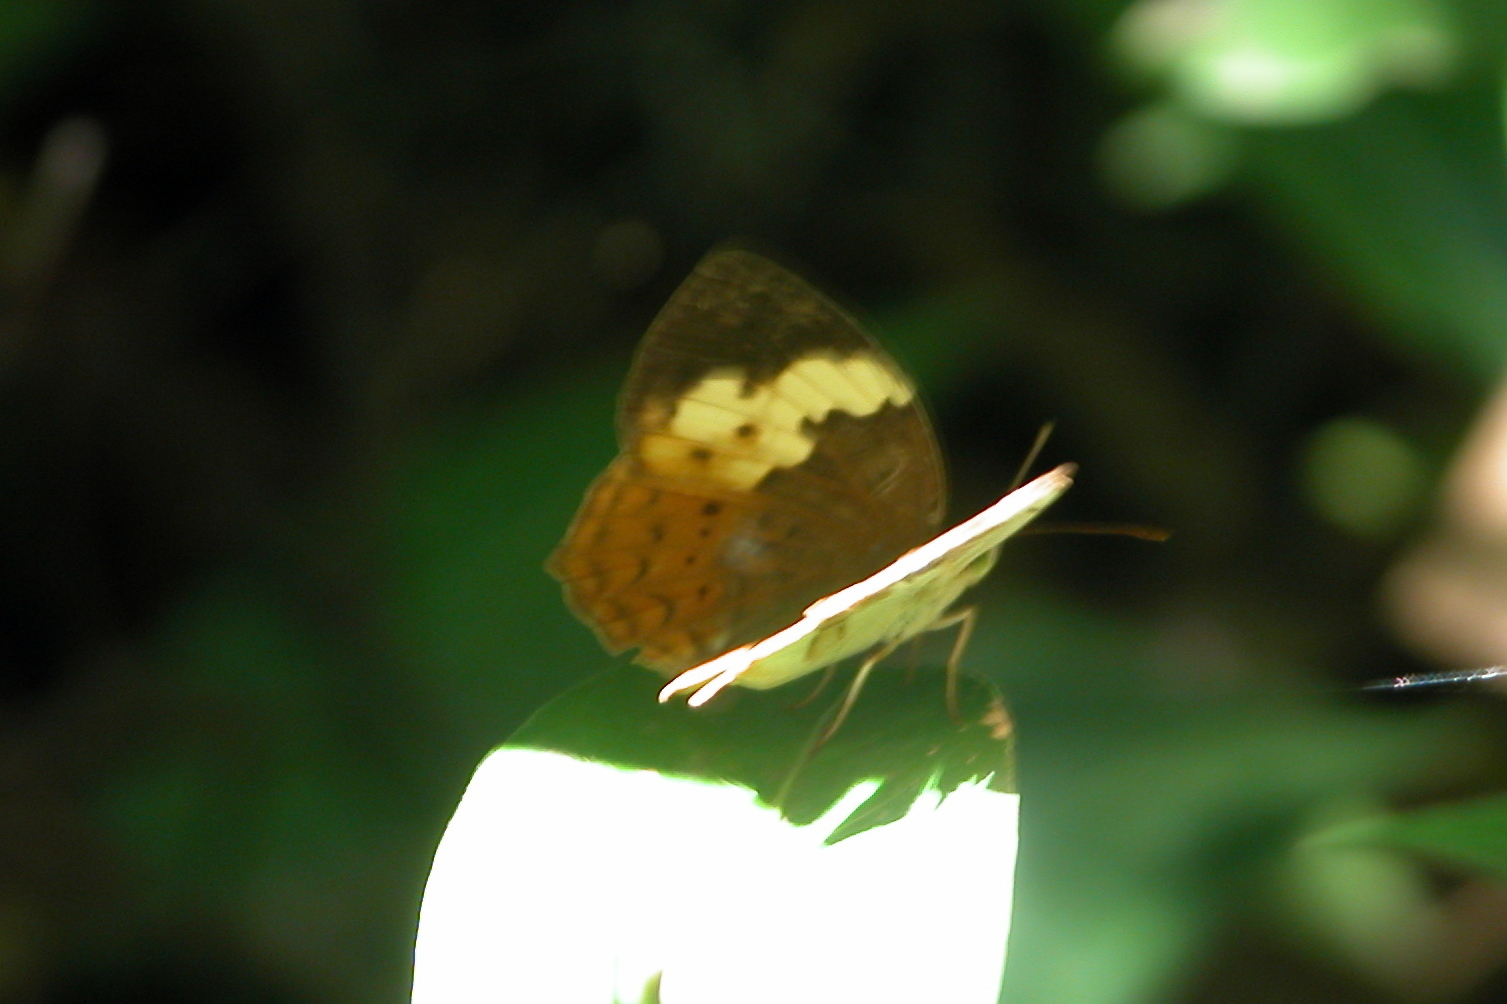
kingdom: Animalia
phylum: Arthropoda
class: Insecta
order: Lepidoptera
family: Nymphalidae
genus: Cupha
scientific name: Cupha erymanthis
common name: Rustic
